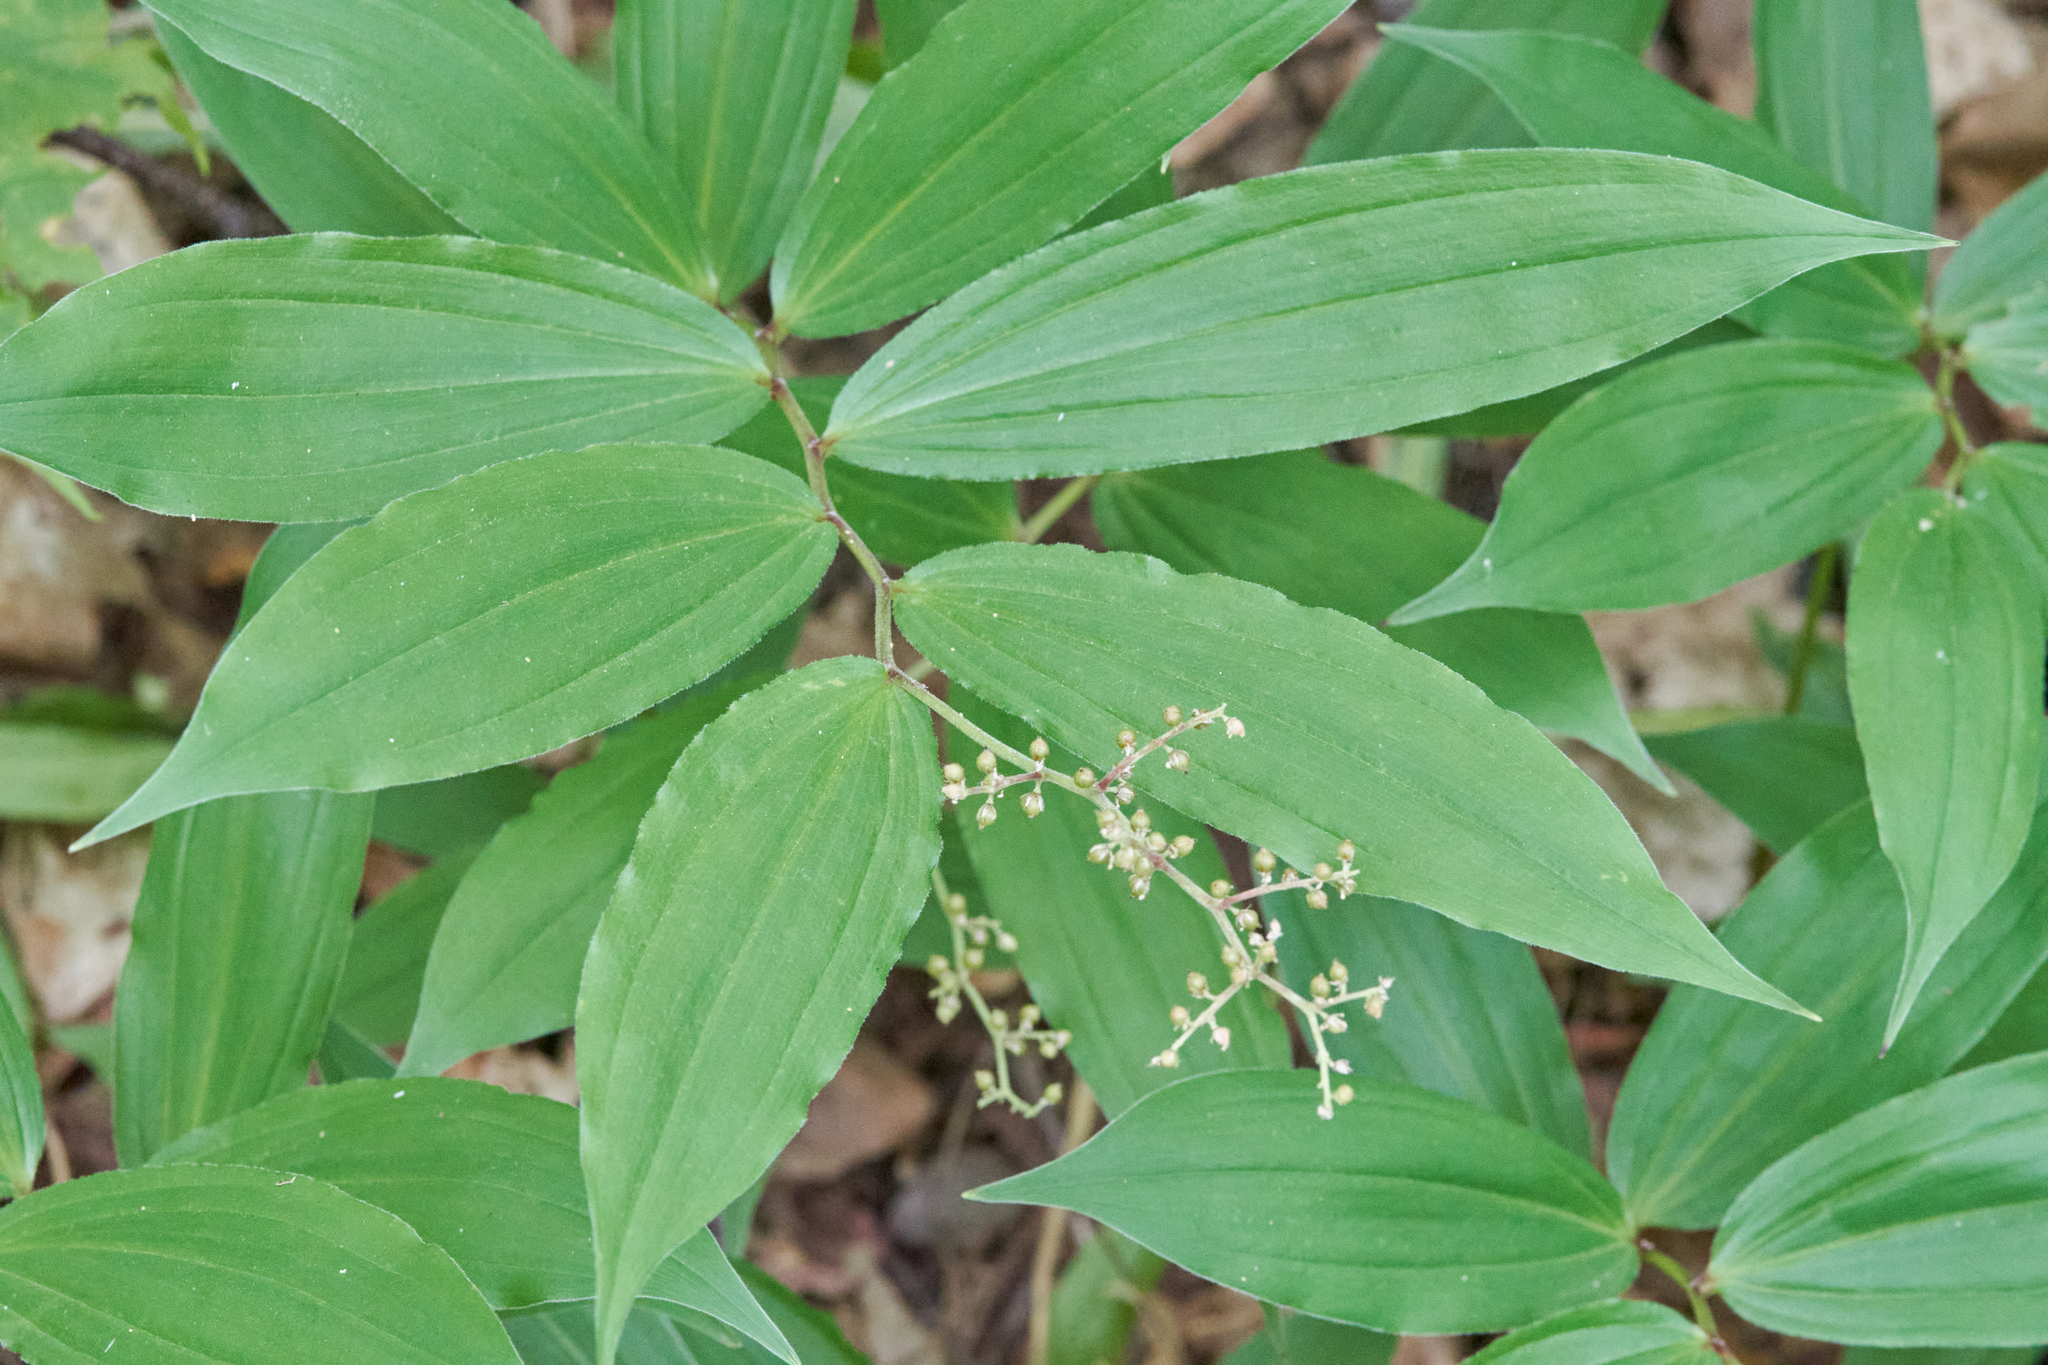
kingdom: Plantae
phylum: Tracheophyta
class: Liliopsida
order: Asparagales
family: Asparagaceae
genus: Maianthemum
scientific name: Maianthemum racemosum
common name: False spikenard
